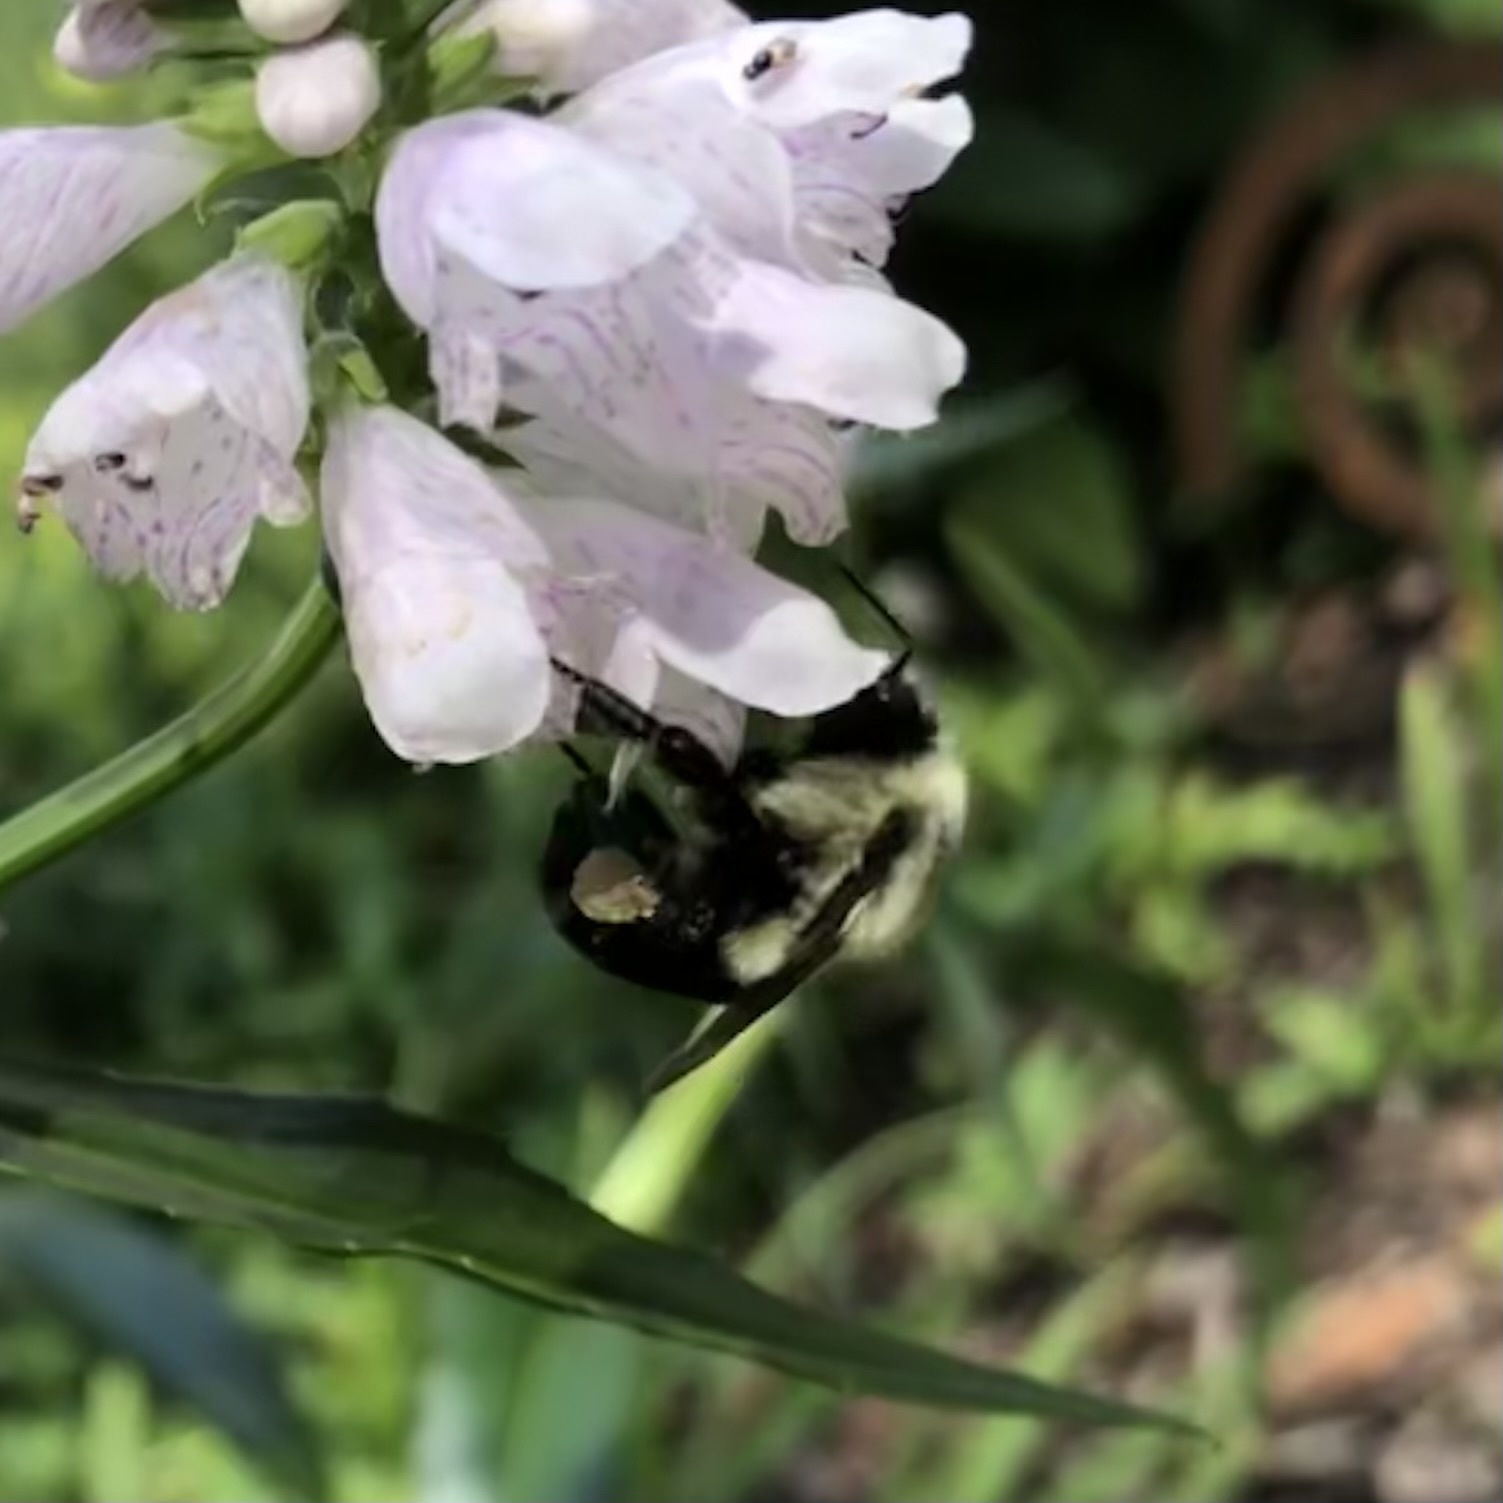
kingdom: Animalia
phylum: Arthropoda
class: Insecta
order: Hymenoptera
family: Apidae
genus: Bombus
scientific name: Bombus impatiens
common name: Common eastern bumble bee
